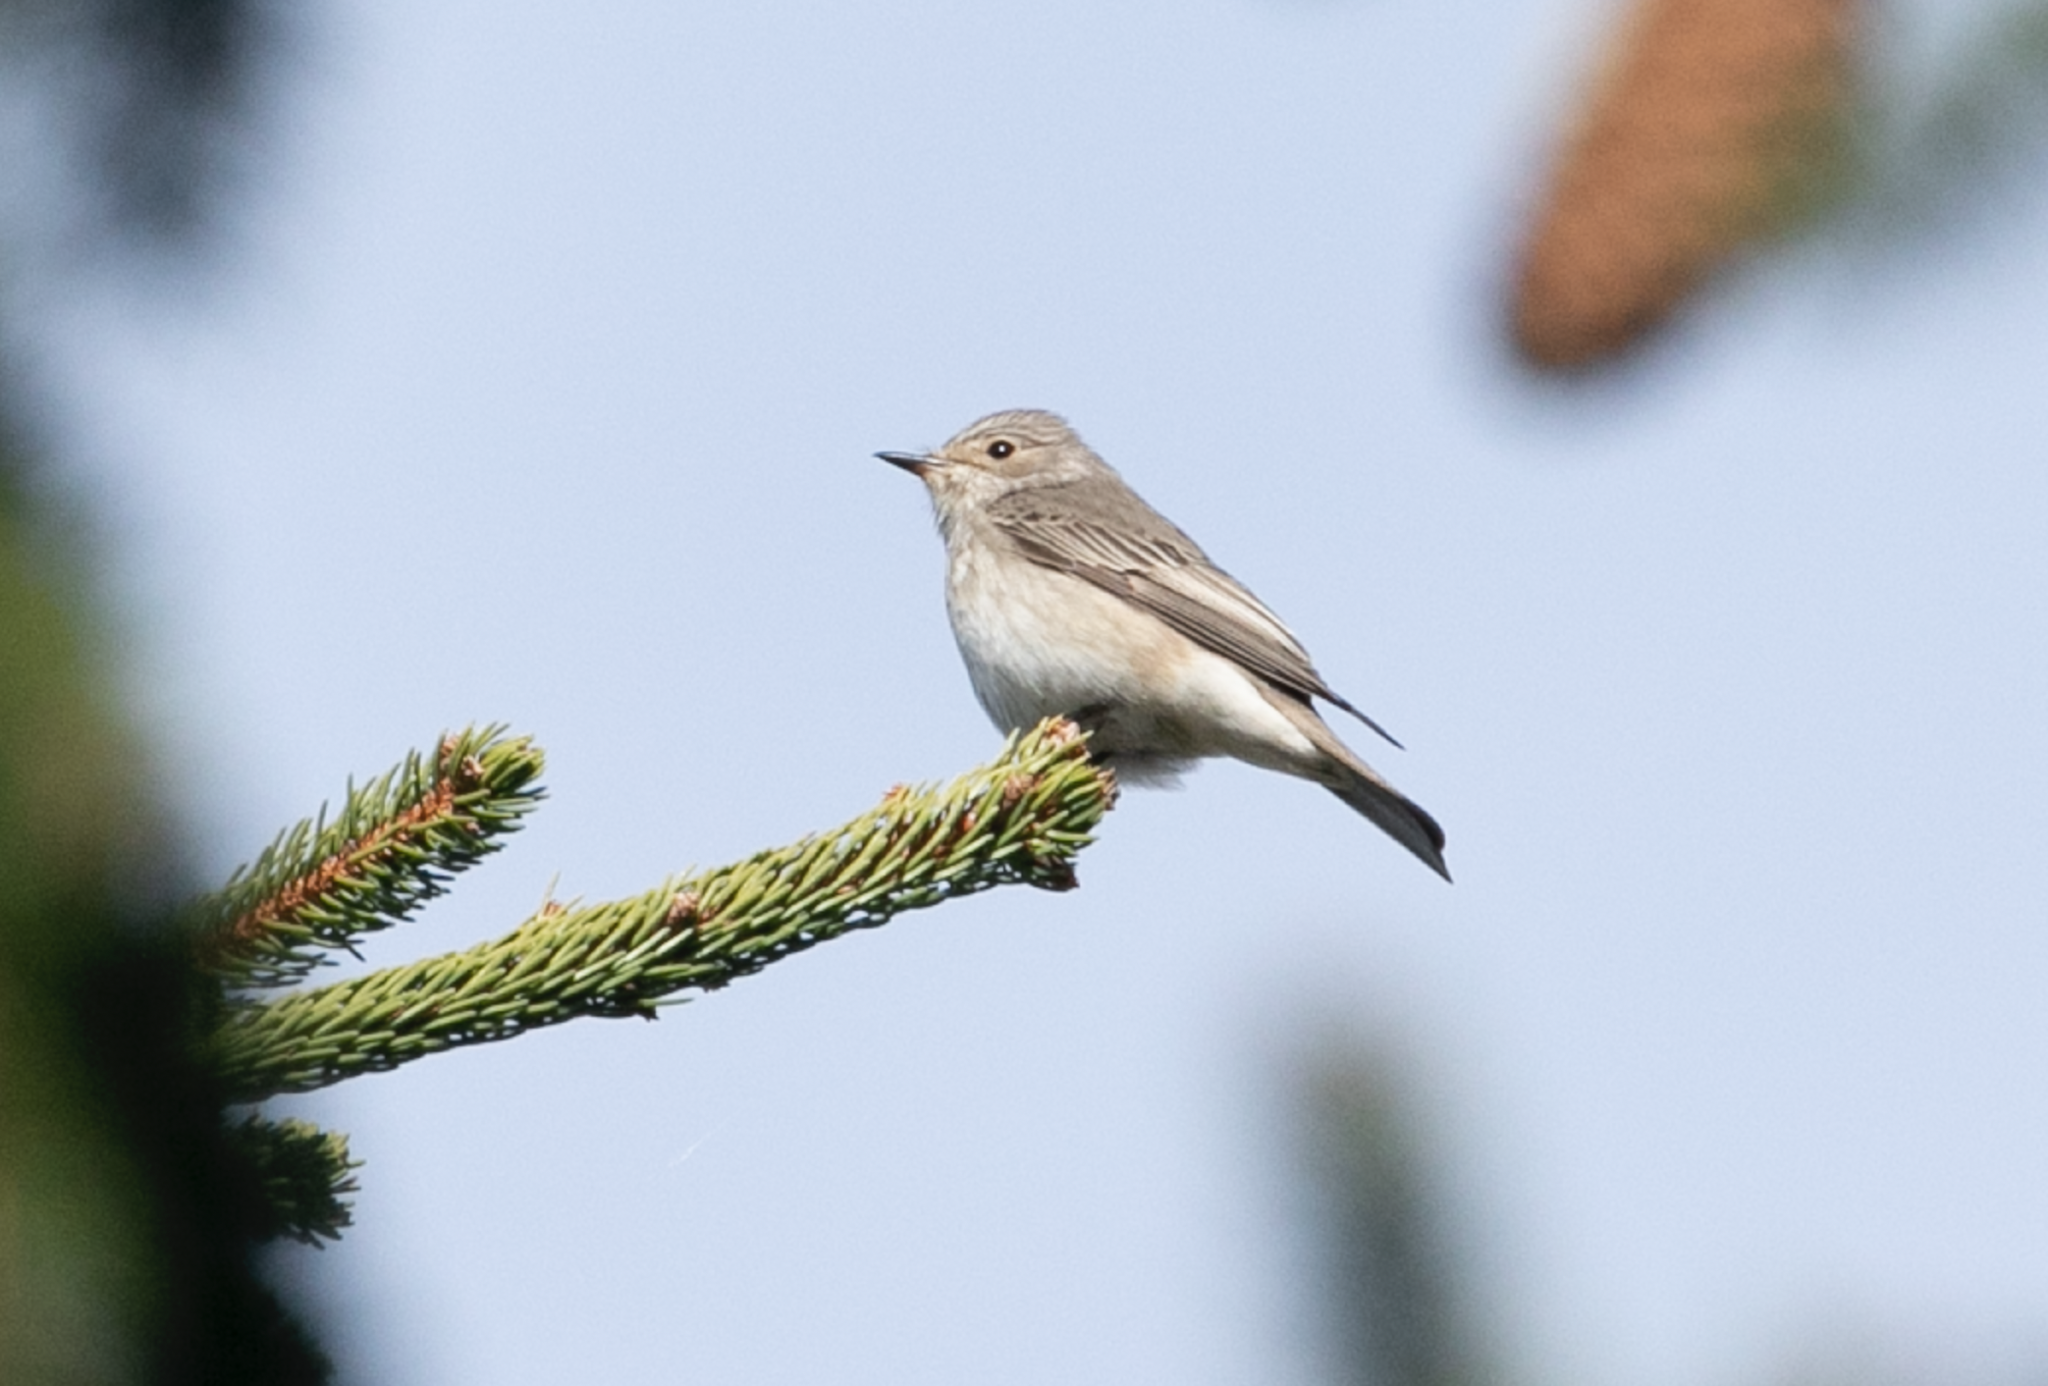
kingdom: Animalia
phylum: Chordata
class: Aves
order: Passeriformes
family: Muscicapidae
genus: Muscicapa
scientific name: Muscicapa striata
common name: Spotted flycatcher
